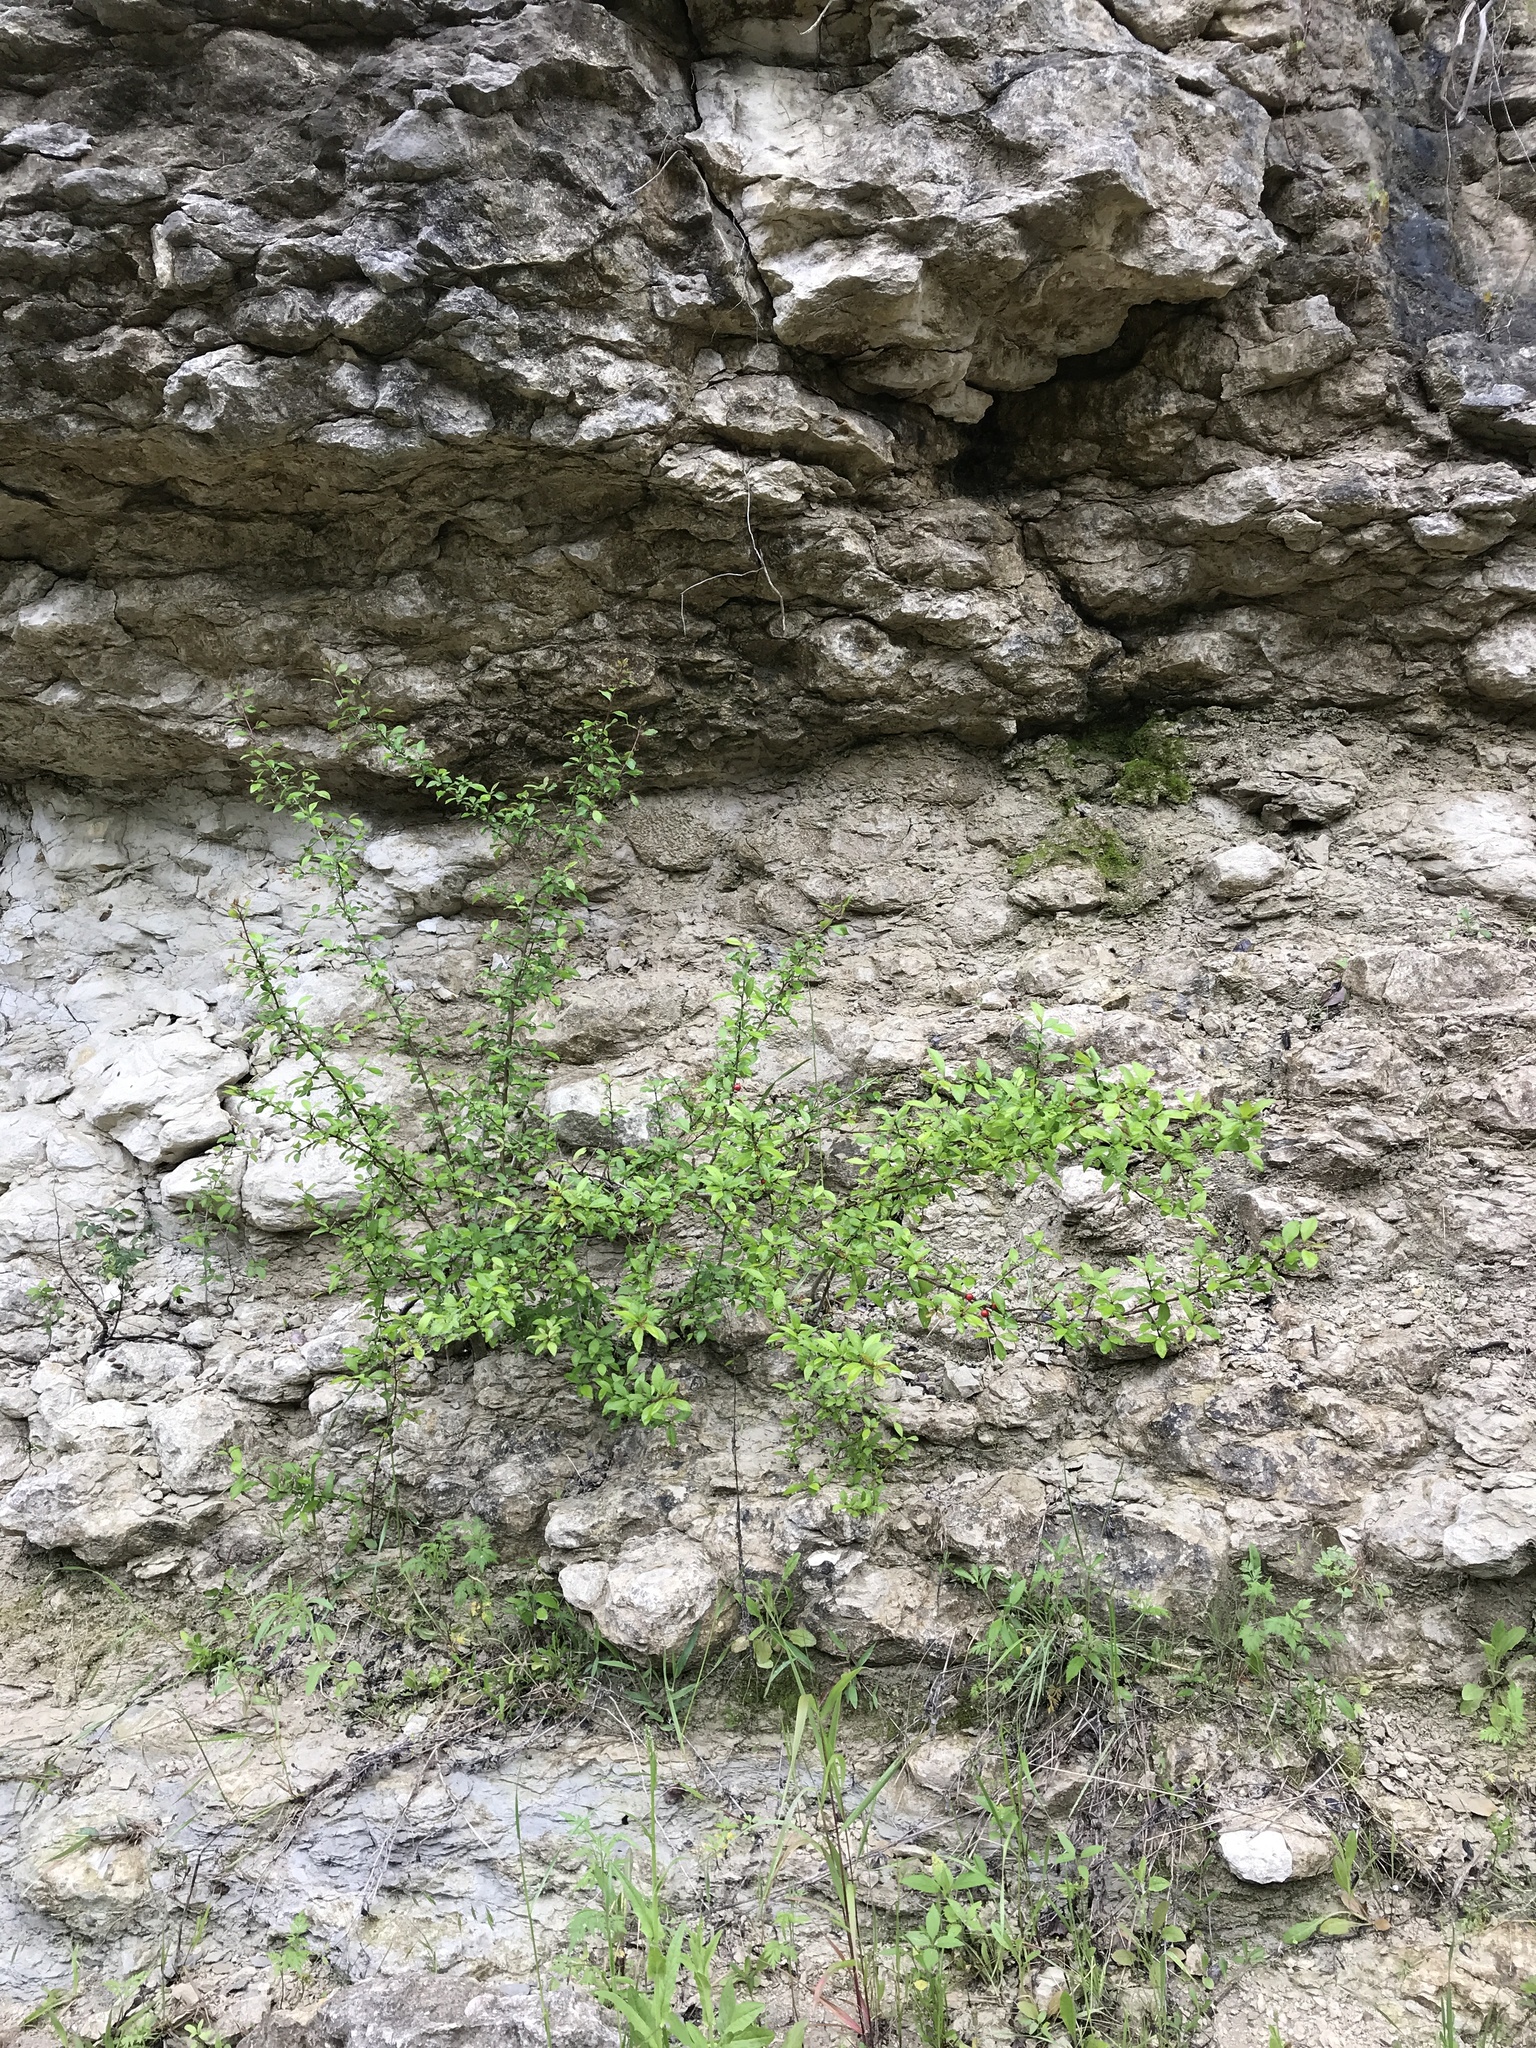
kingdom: Plantae
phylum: Tracheophyta
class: Magnoliopsida
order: Aquifoliales
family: Aquifoliaceae
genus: Ilex
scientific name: Ilex decidua
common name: Possum-haw
